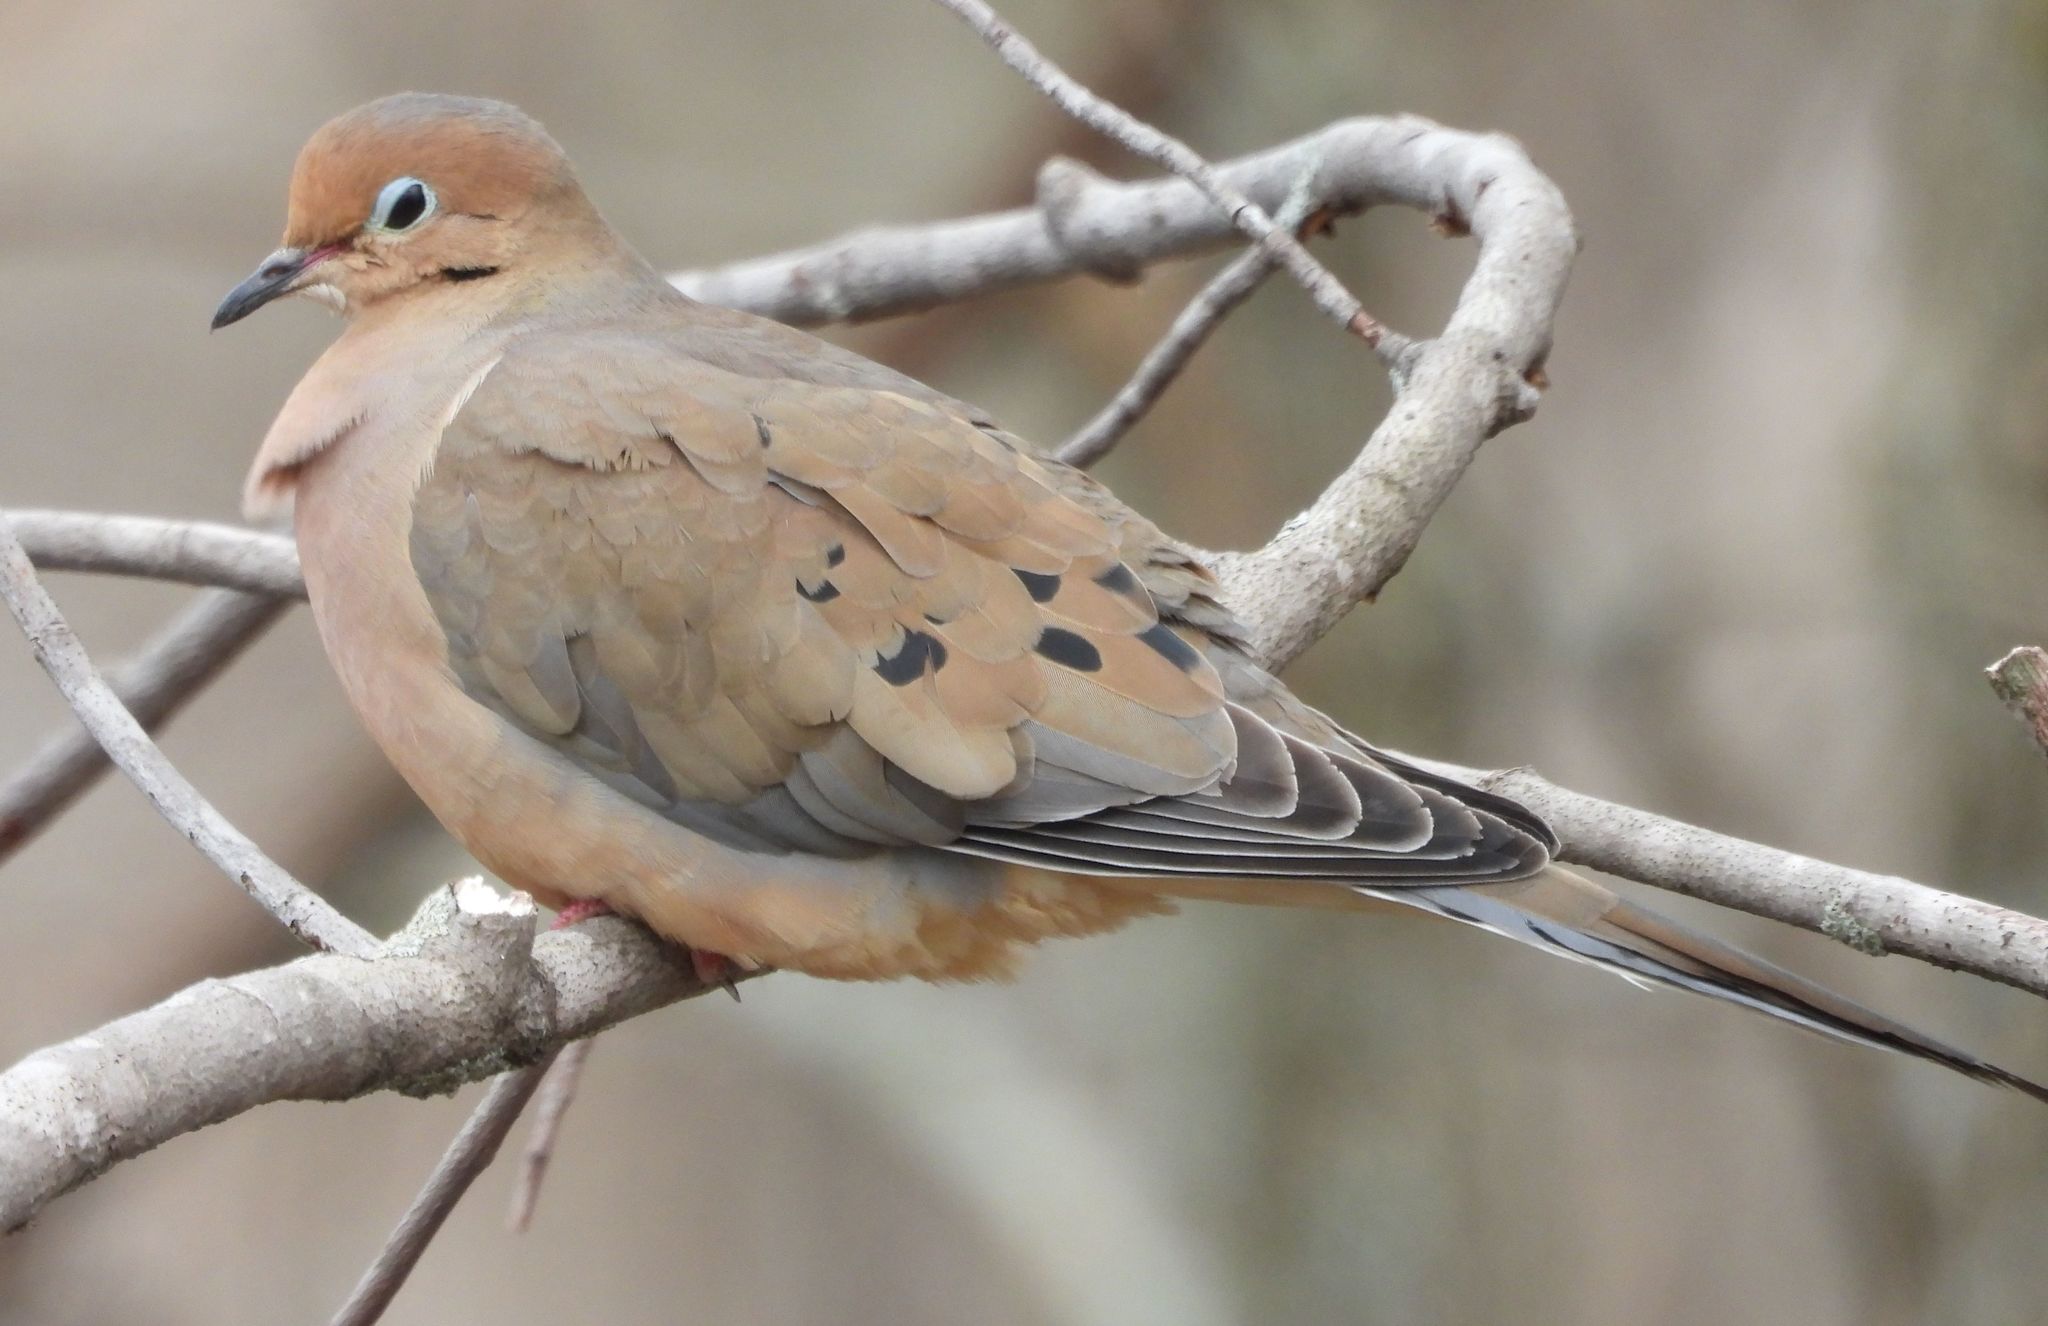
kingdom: Animalia
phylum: Chordata
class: Aves
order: Columbiformes
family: Columbidae
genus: Zenaida
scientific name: Zenaida macroura
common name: Mourning dove
